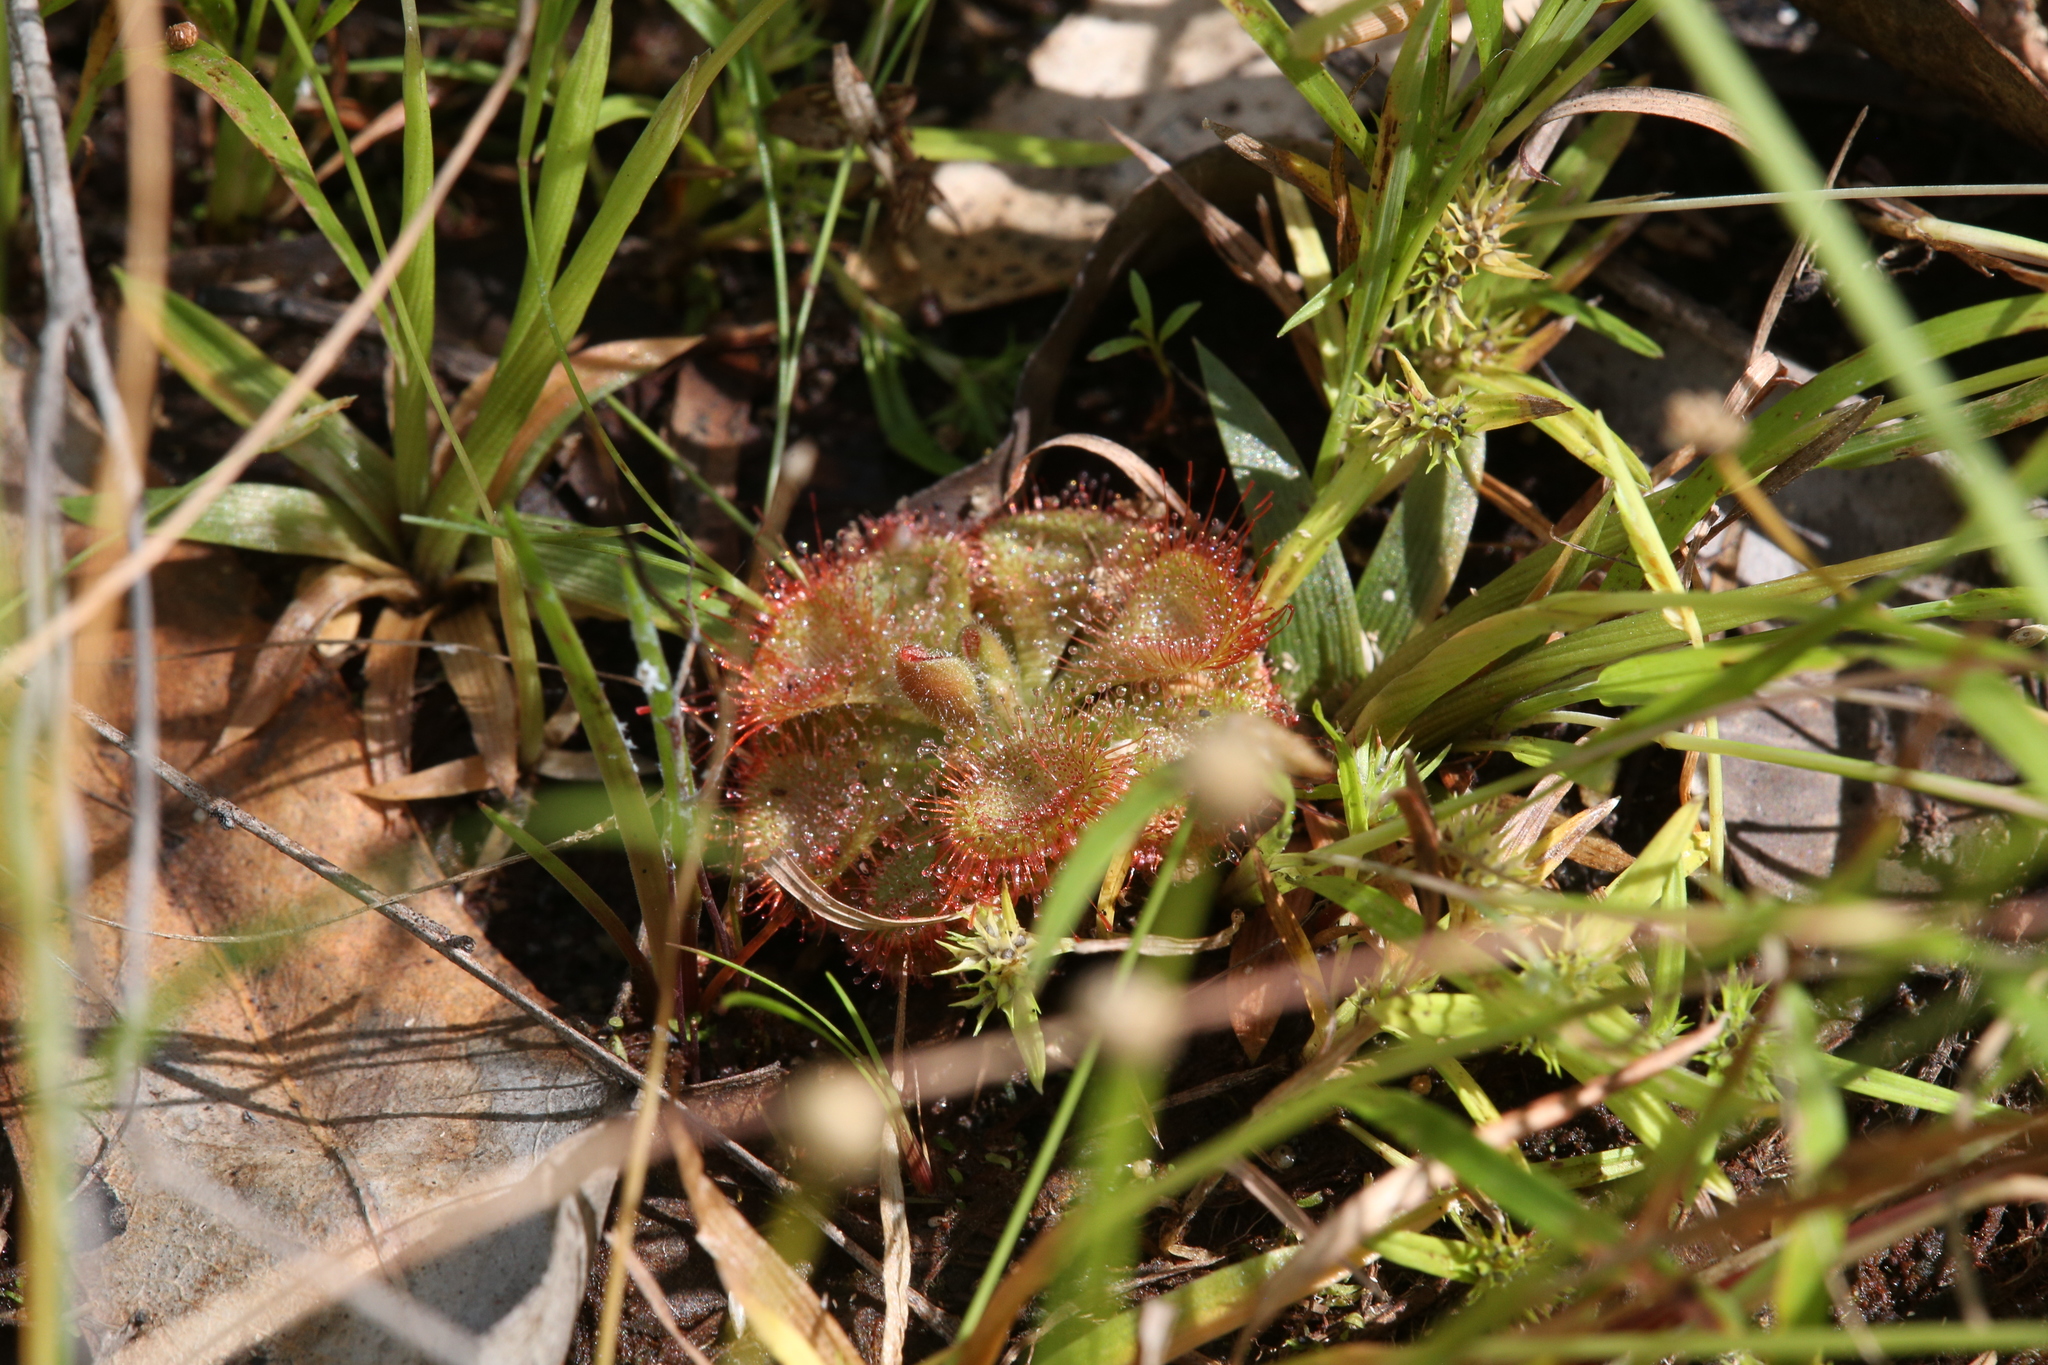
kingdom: Plantae
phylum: Tracheophyta
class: Magnoliopsida
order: Caryophyllales
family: Droseraceae
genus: Drosera
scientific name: Drosera spatulata
